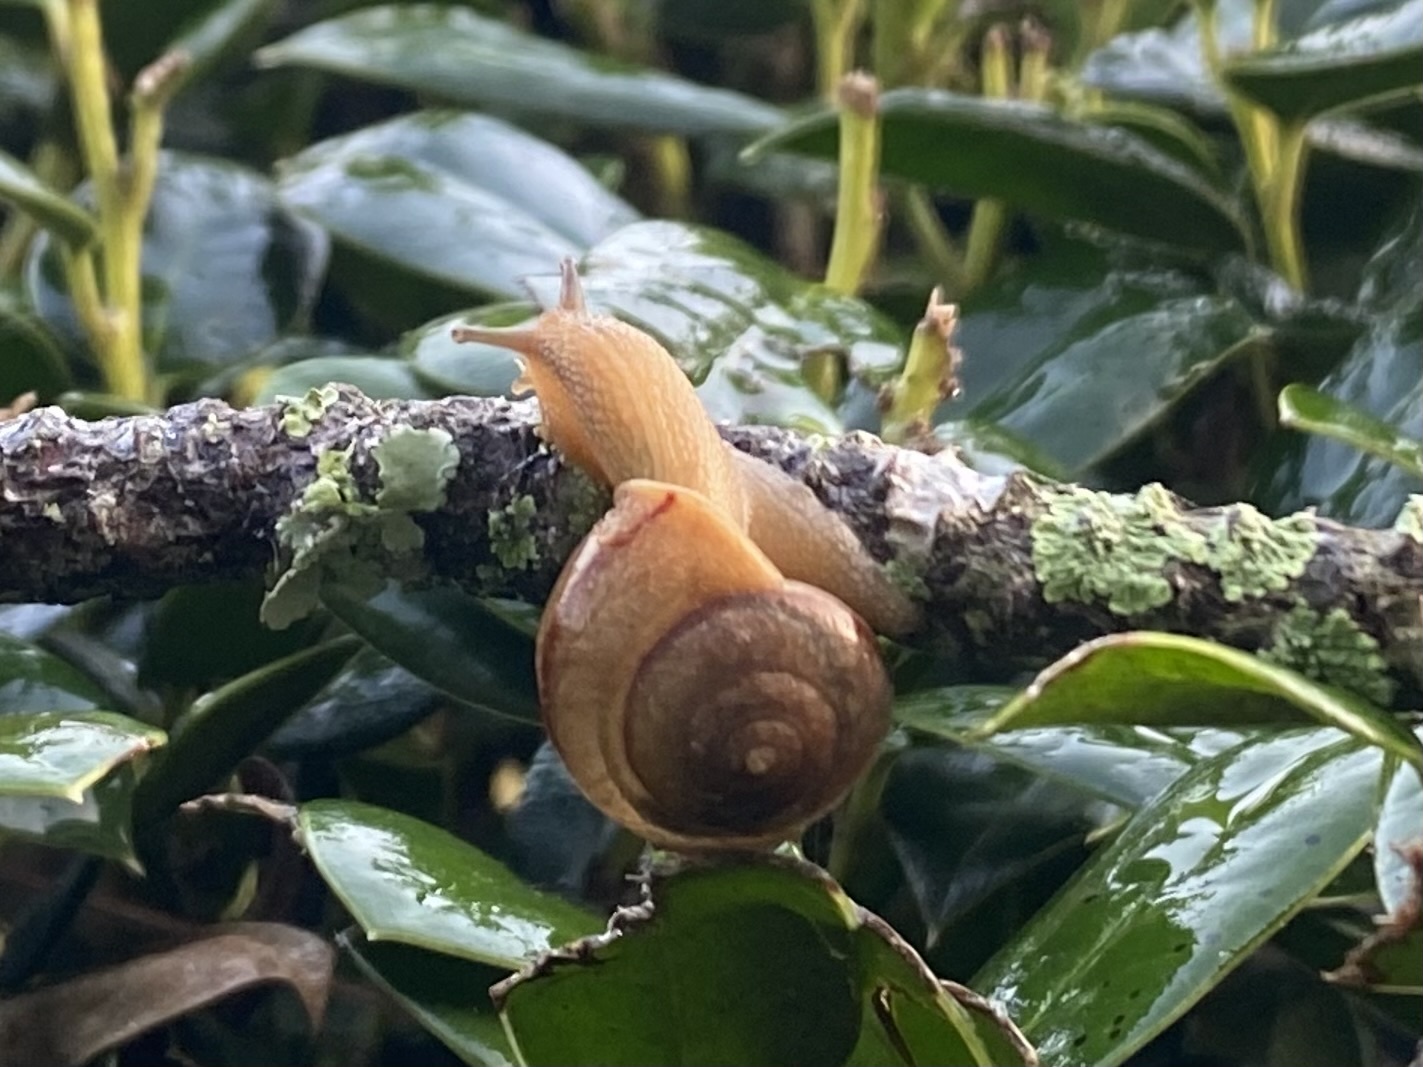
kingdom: Animalia
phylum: Mollusca
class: Gastropoda
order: Stylommatophora
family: Camaenidae
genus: Bradybaena
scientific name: Bradybaena similaris
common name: Asian trampsnail
